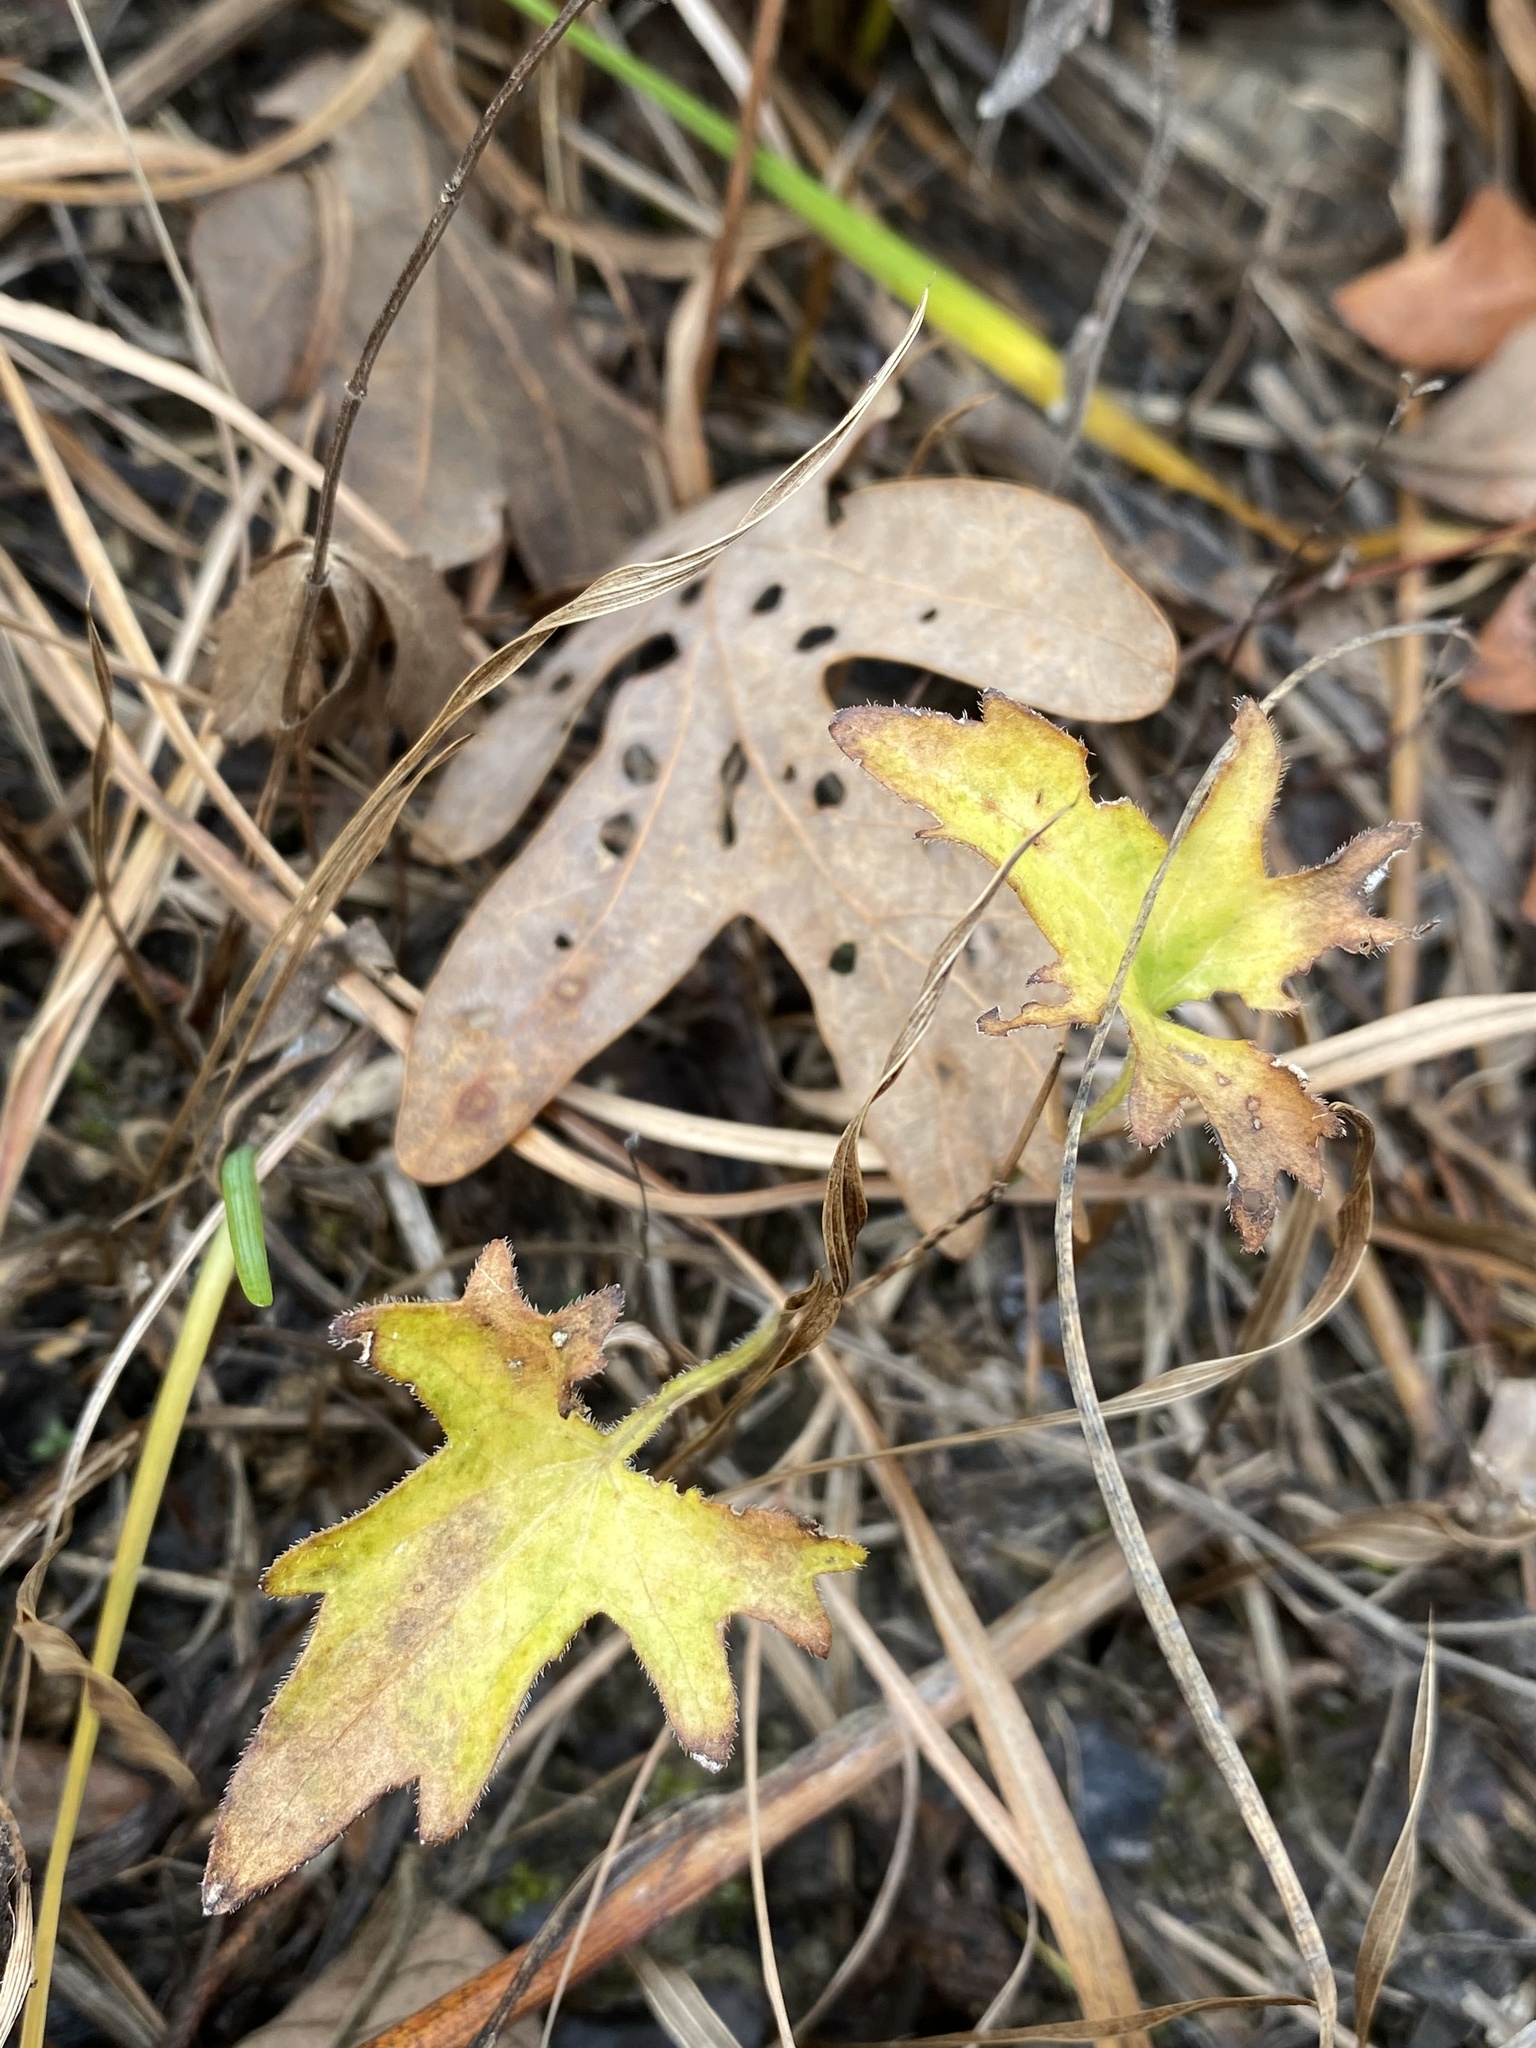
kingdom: Plantae
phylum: Tracheophyta
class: Magnoliopsida
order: Malpighiales
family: Violaceae
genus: Viola
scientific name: Viola baxteri
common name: Baxter's violet
